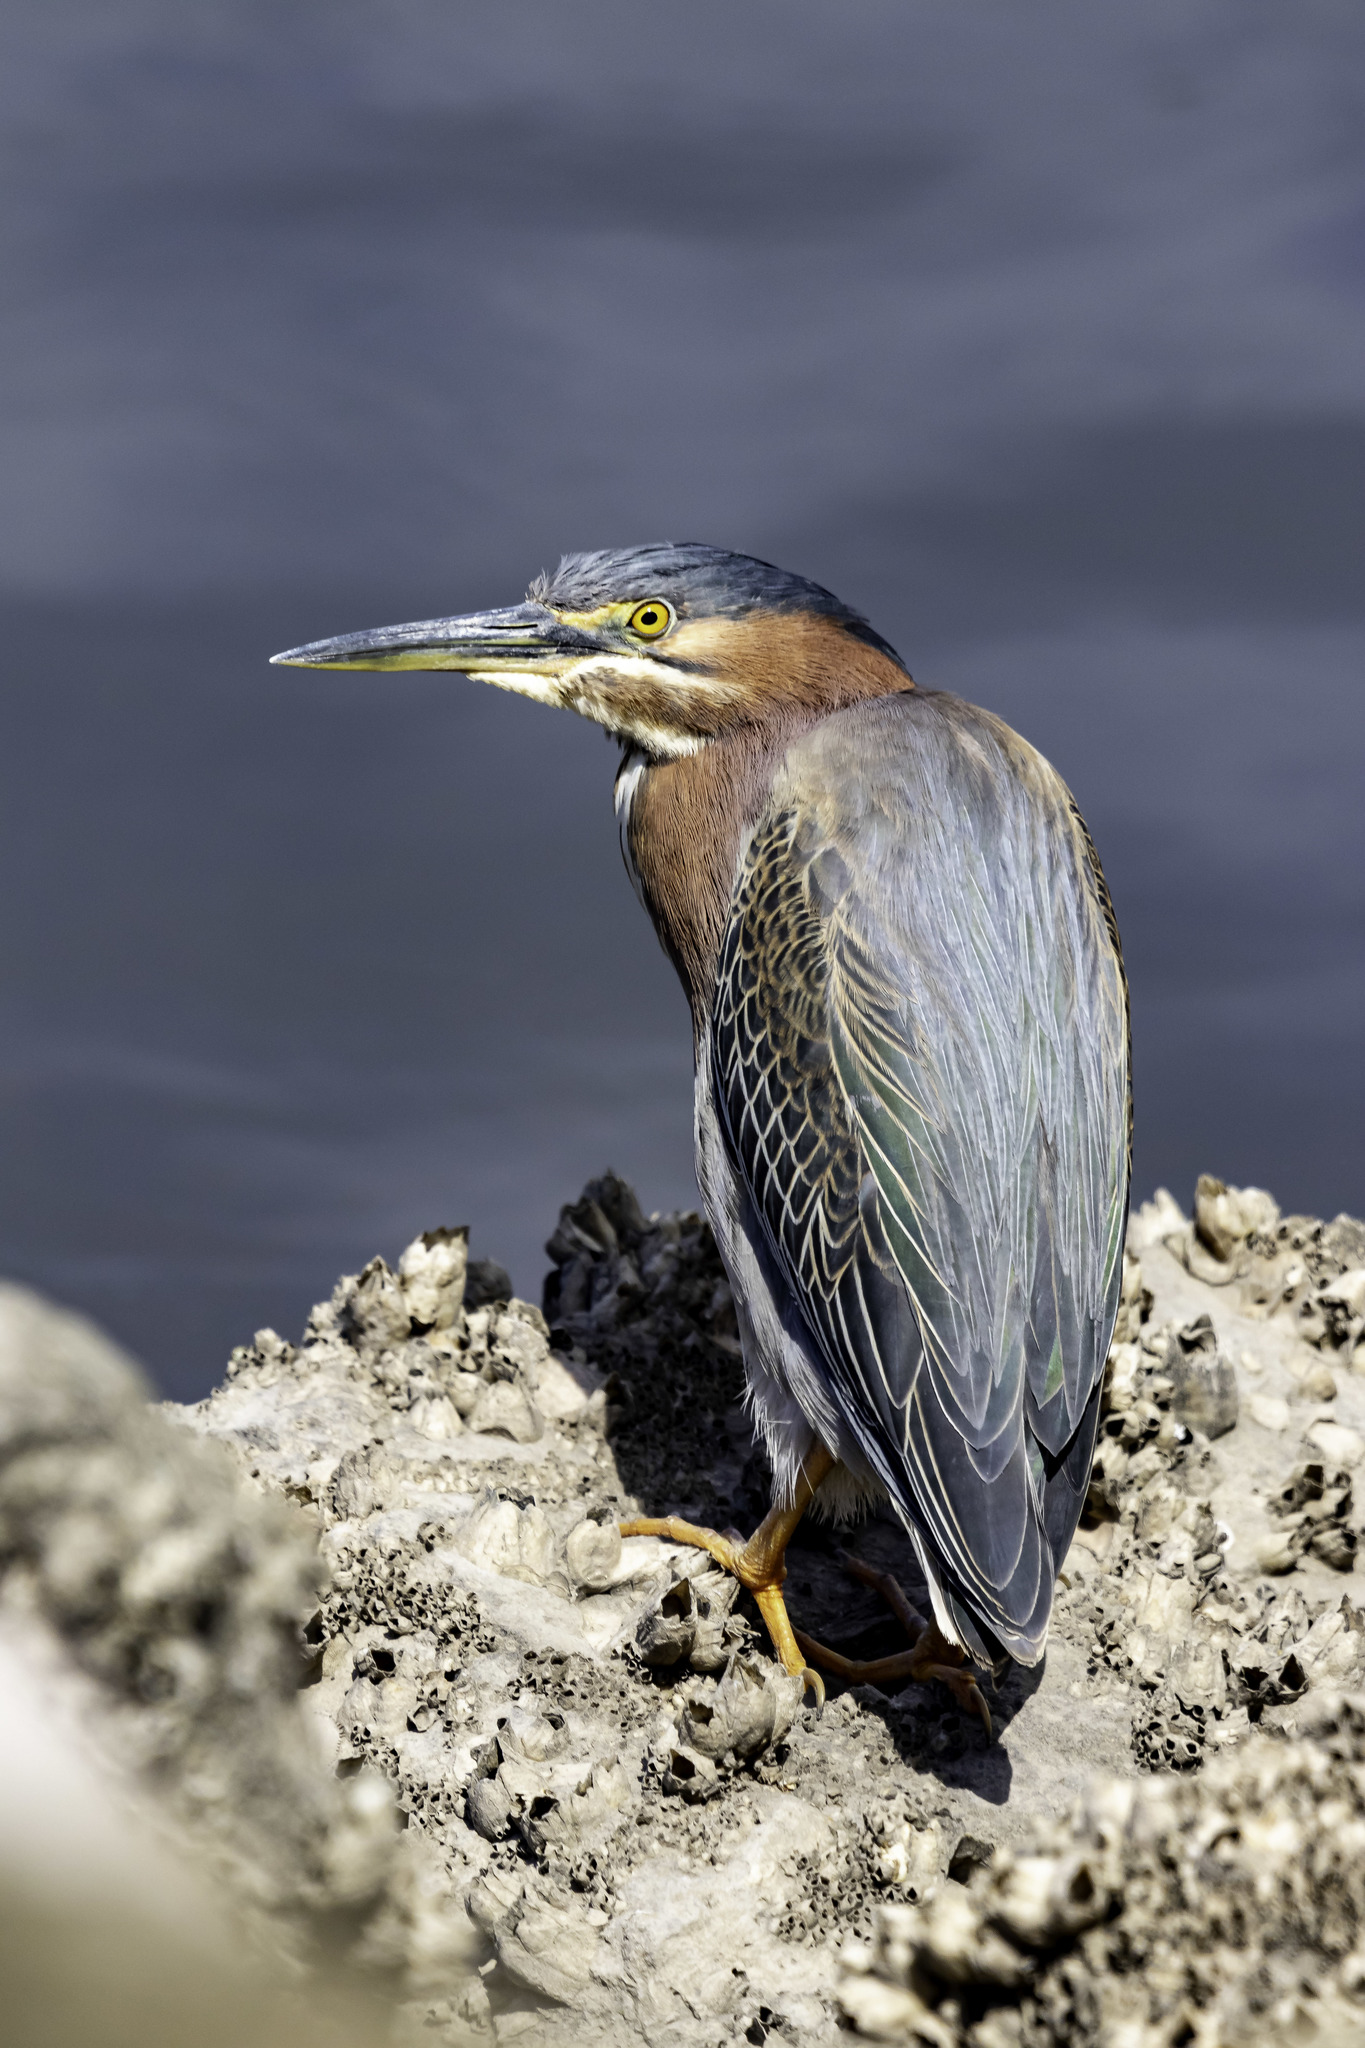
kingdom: Animalia
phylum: Chordata
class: Aves
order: Pelecaniformes
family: Ardeidae
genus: Butorides
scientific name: Butorides virescens
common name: Green heron
